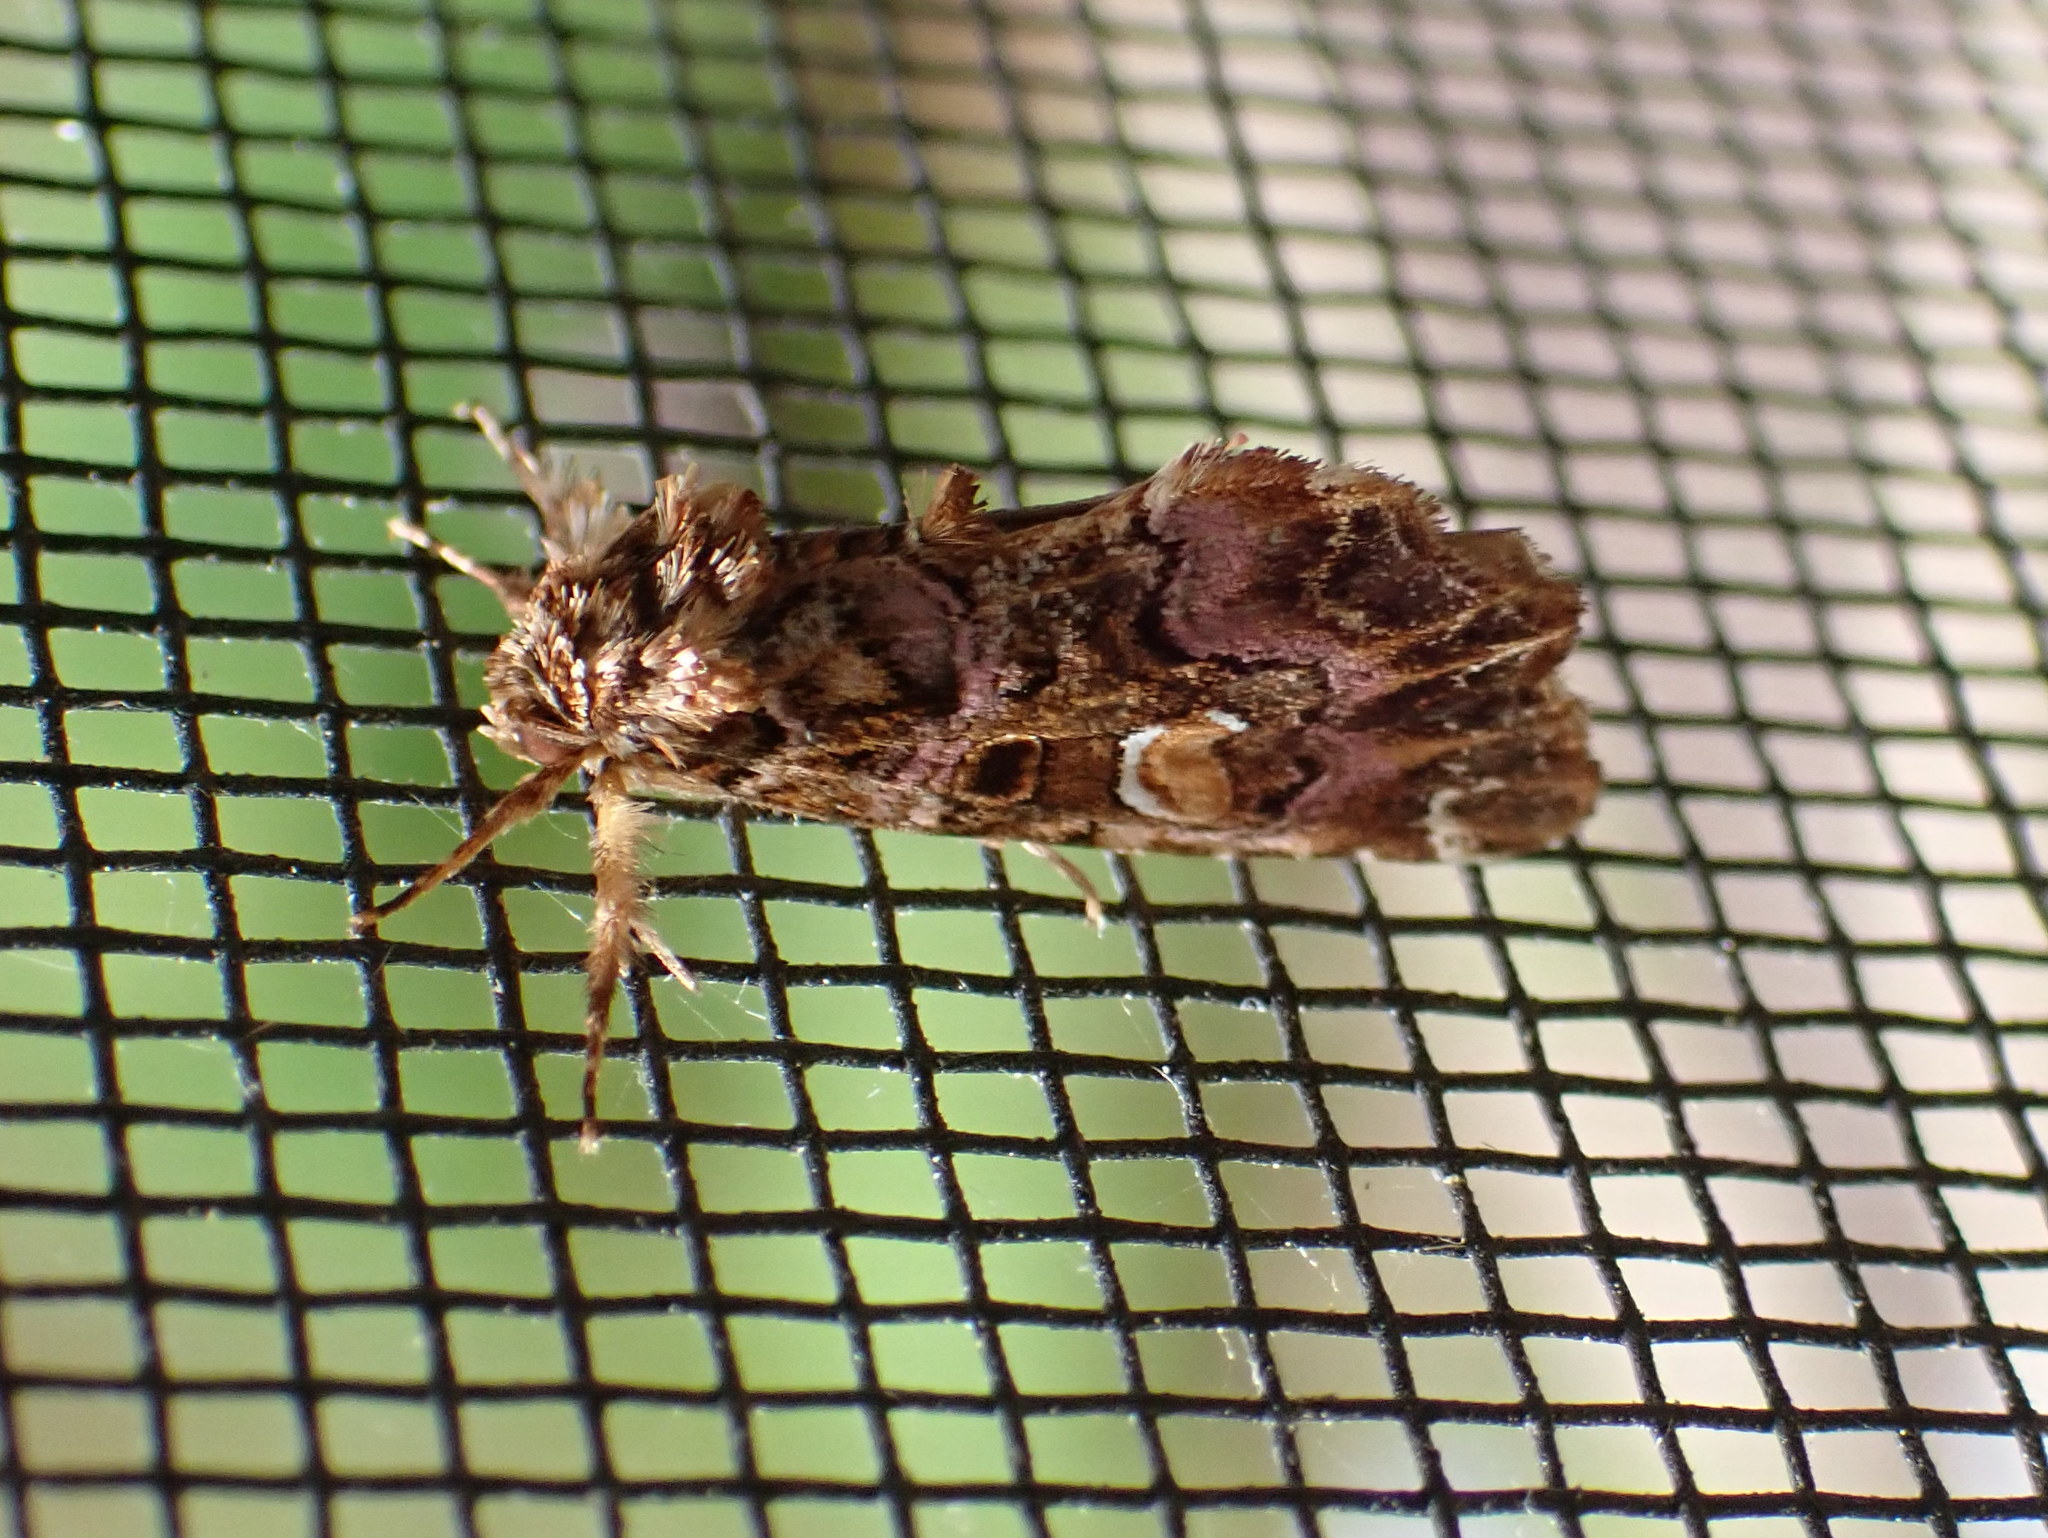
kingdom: Animalia
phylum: Arthropoda
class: Insecta
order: Lepidoptera
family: Noctuidae
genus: Callopistria
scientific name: Callopistria mollissima
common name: Pink-shaded fern moth
